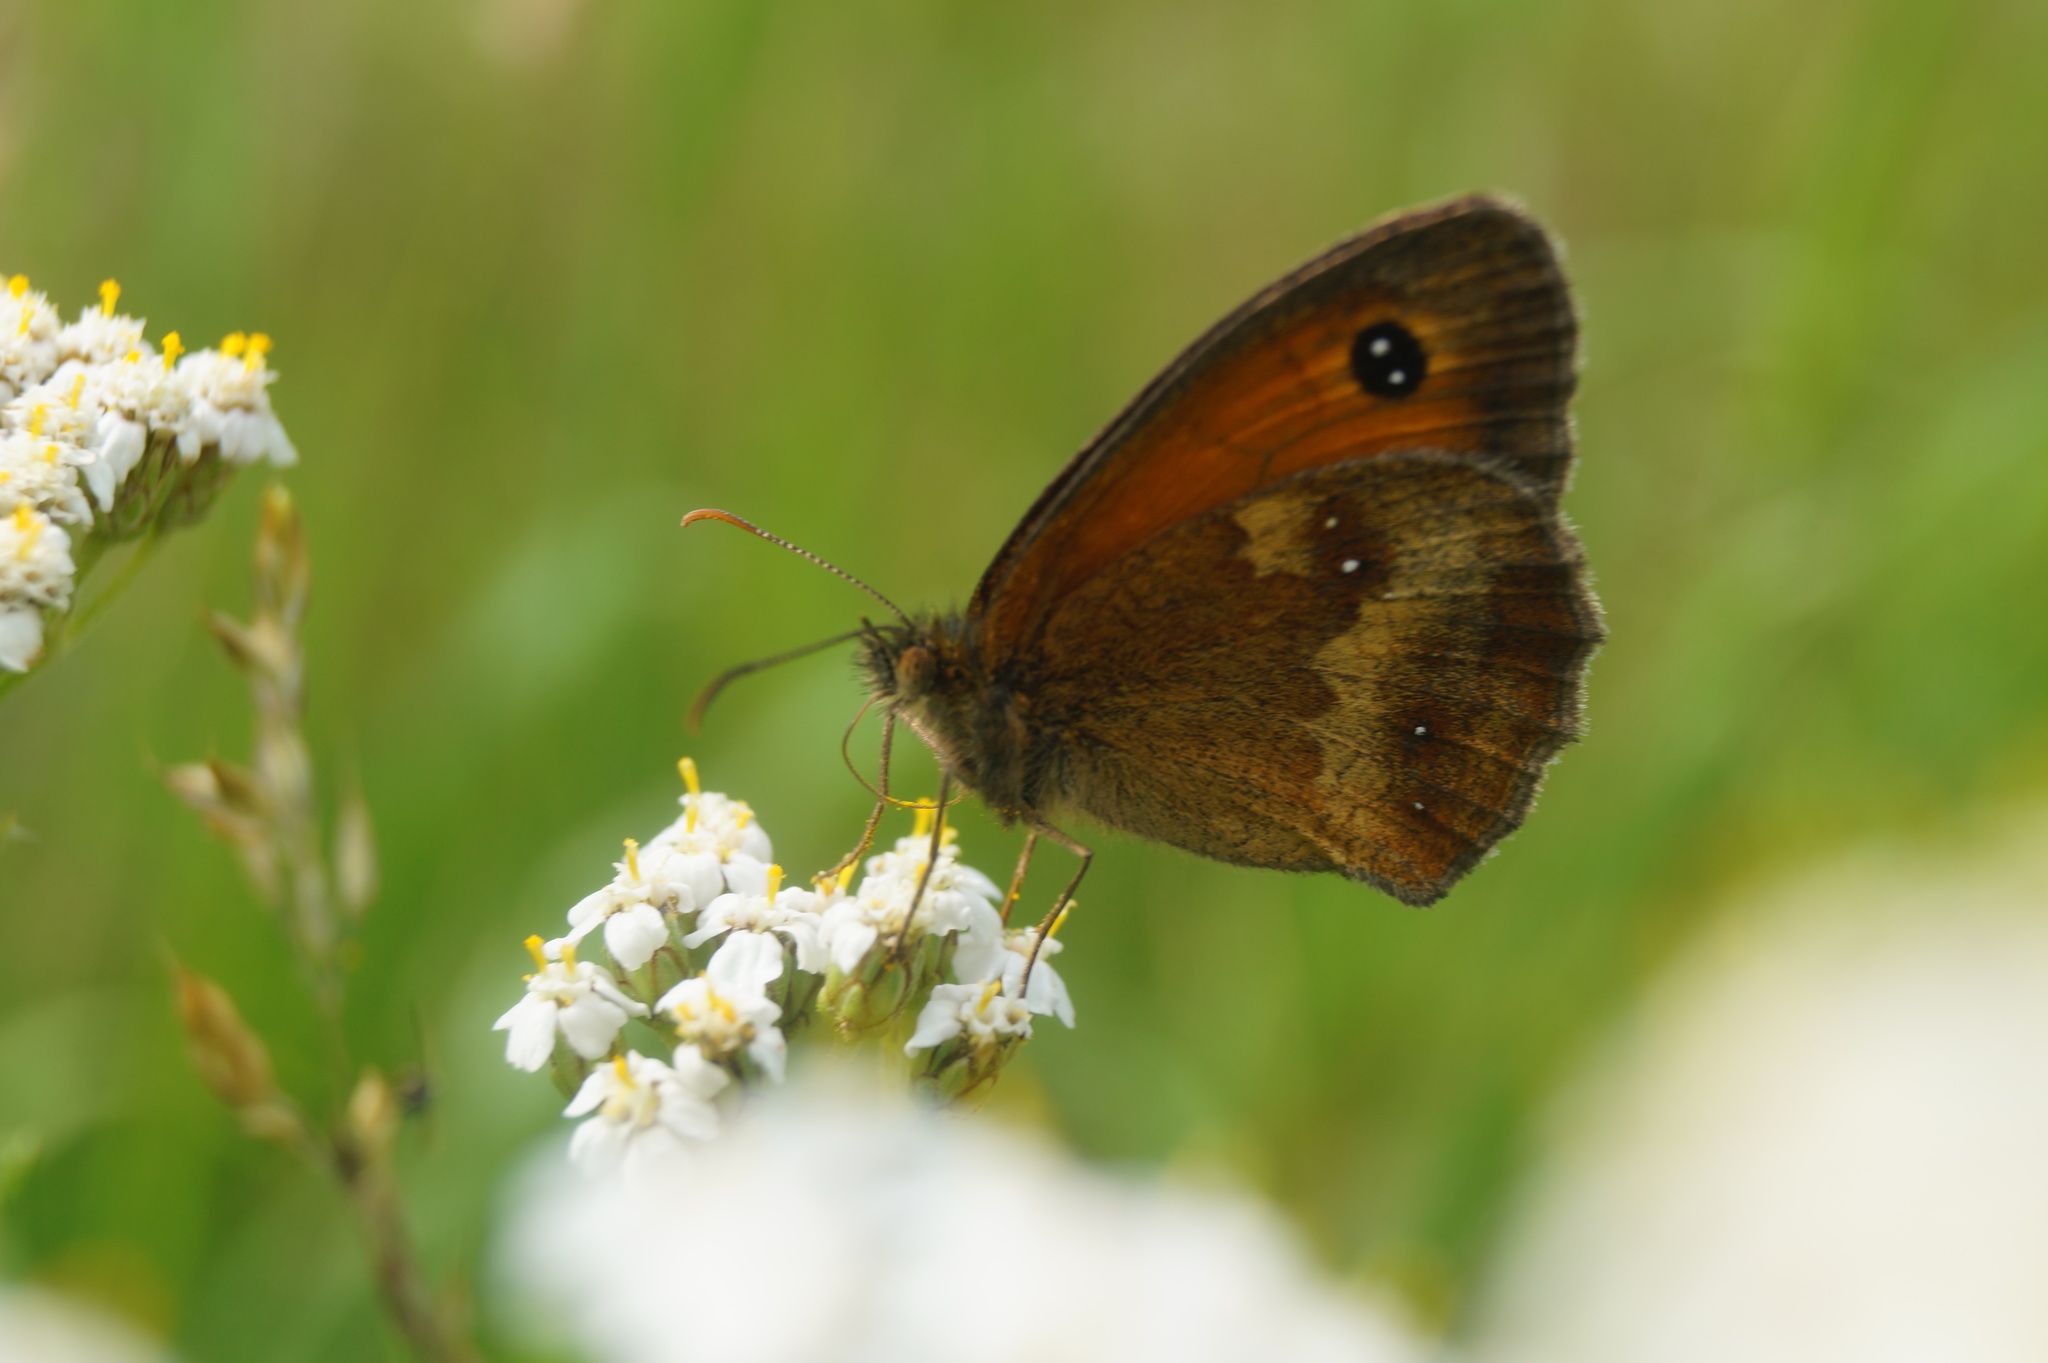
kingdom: Animalia
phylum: Arthropoda
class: Insecta
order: Lepidoptera
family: Nymphalidae
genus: Pyronia
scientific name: Pyronia tithonus
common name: Gatekeeper
